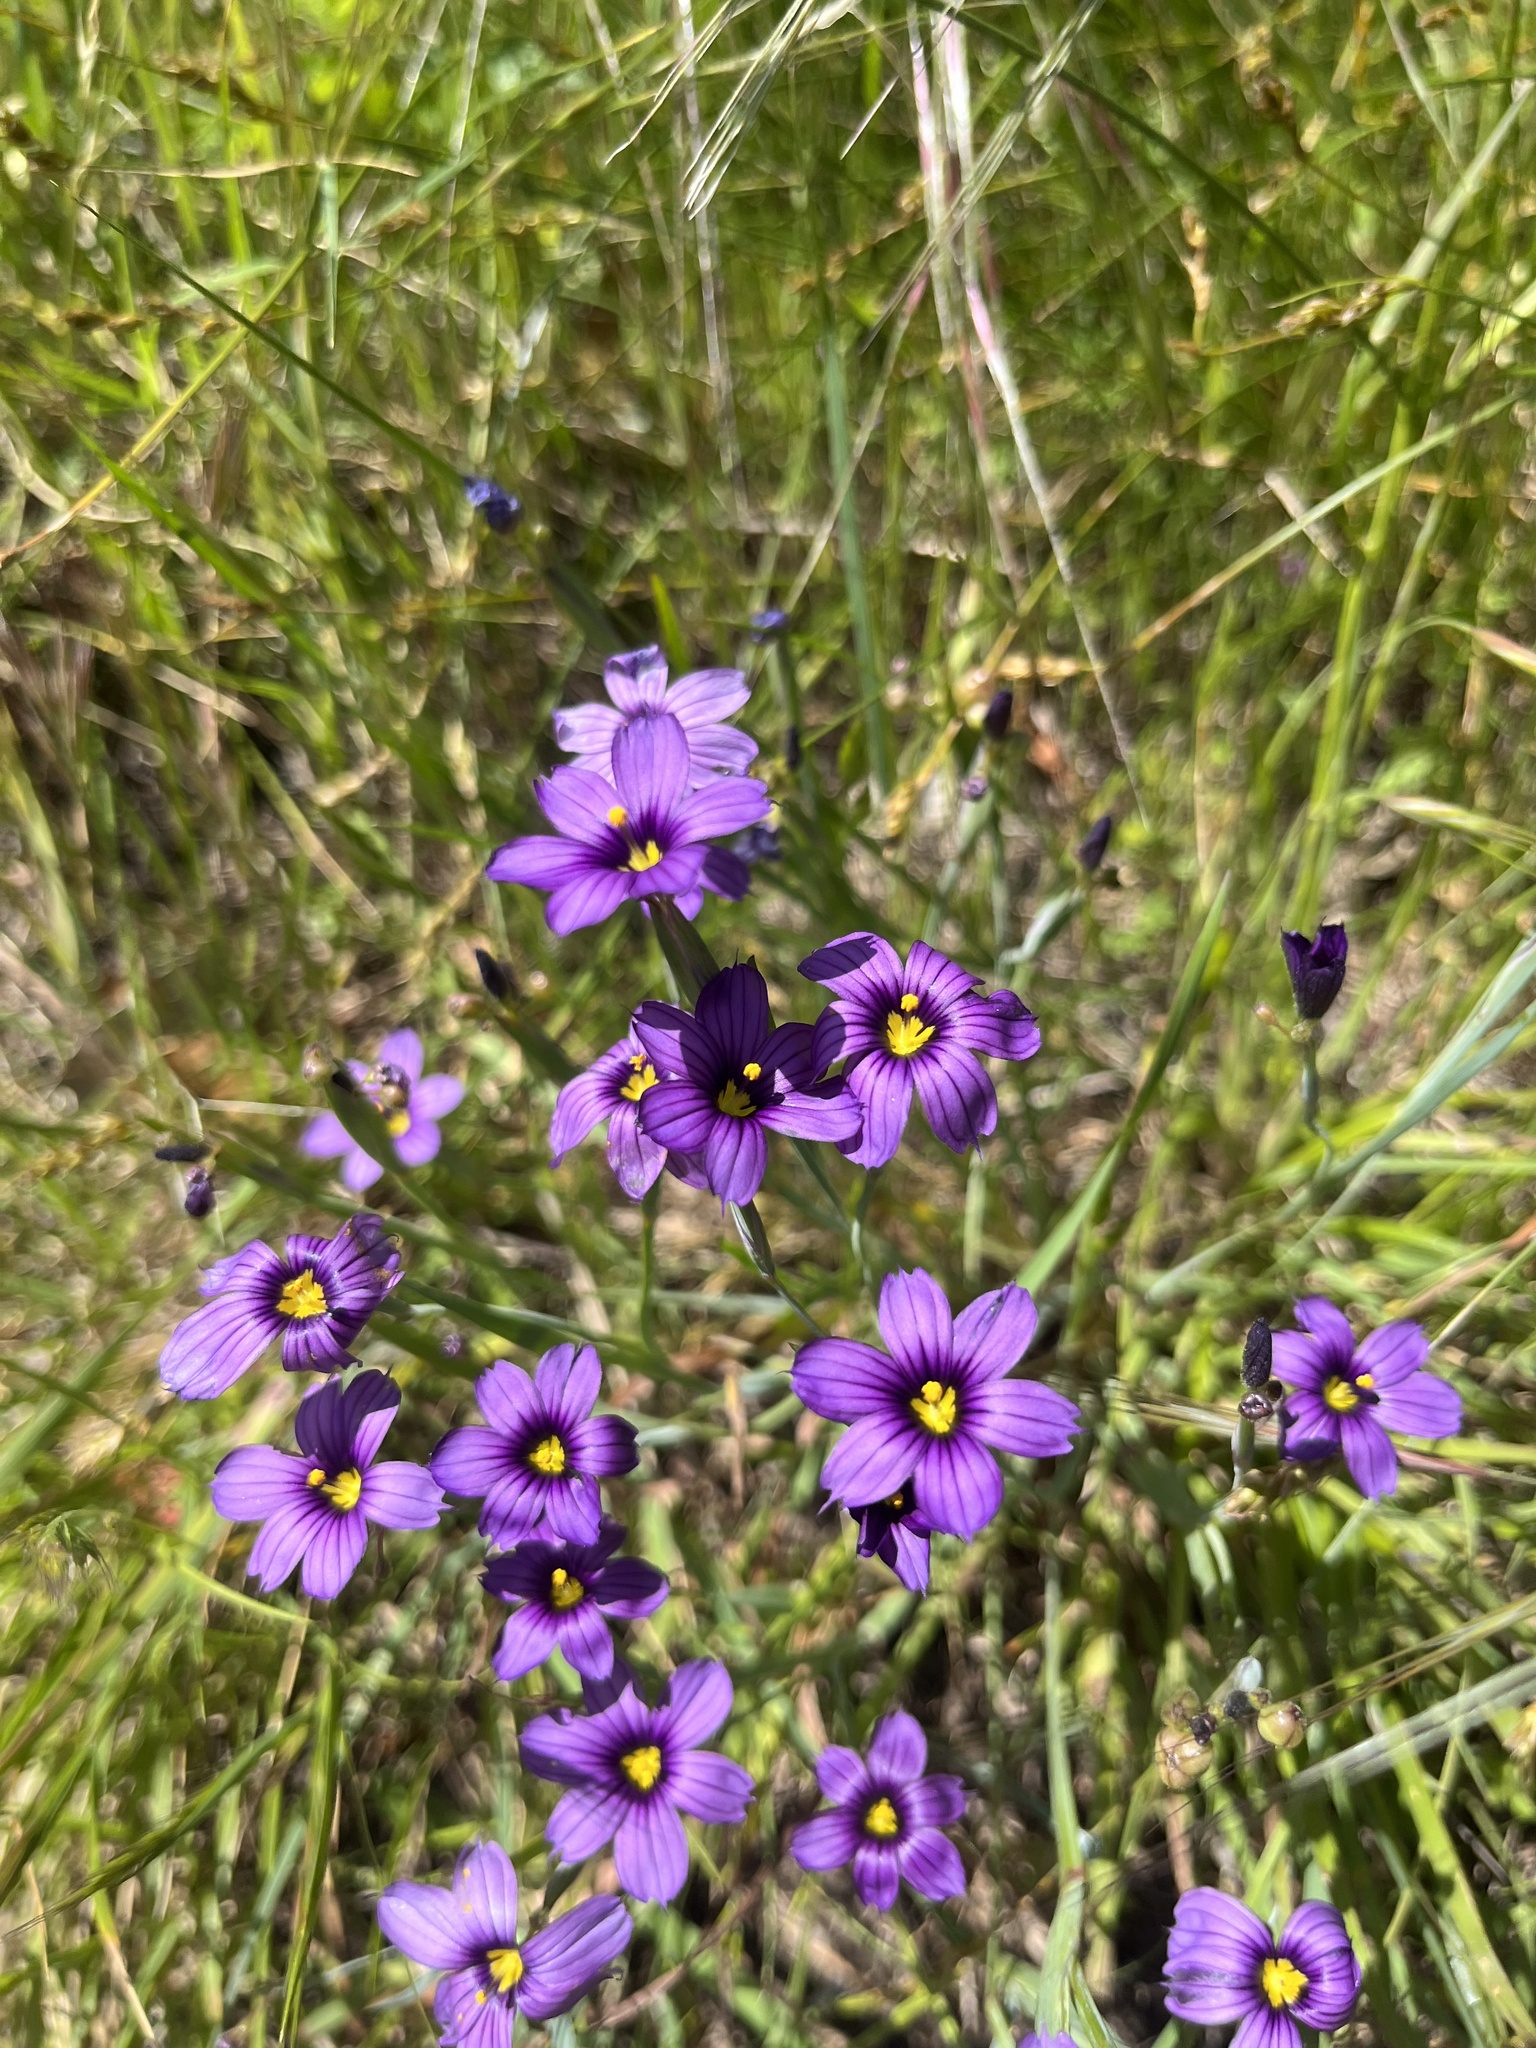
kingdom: Plantae
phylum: Tracheophyta
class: Liliopsida
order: Asparagales
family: Iridaceae
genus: Sisyrinchium
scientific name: Sisyrinchium bellum
